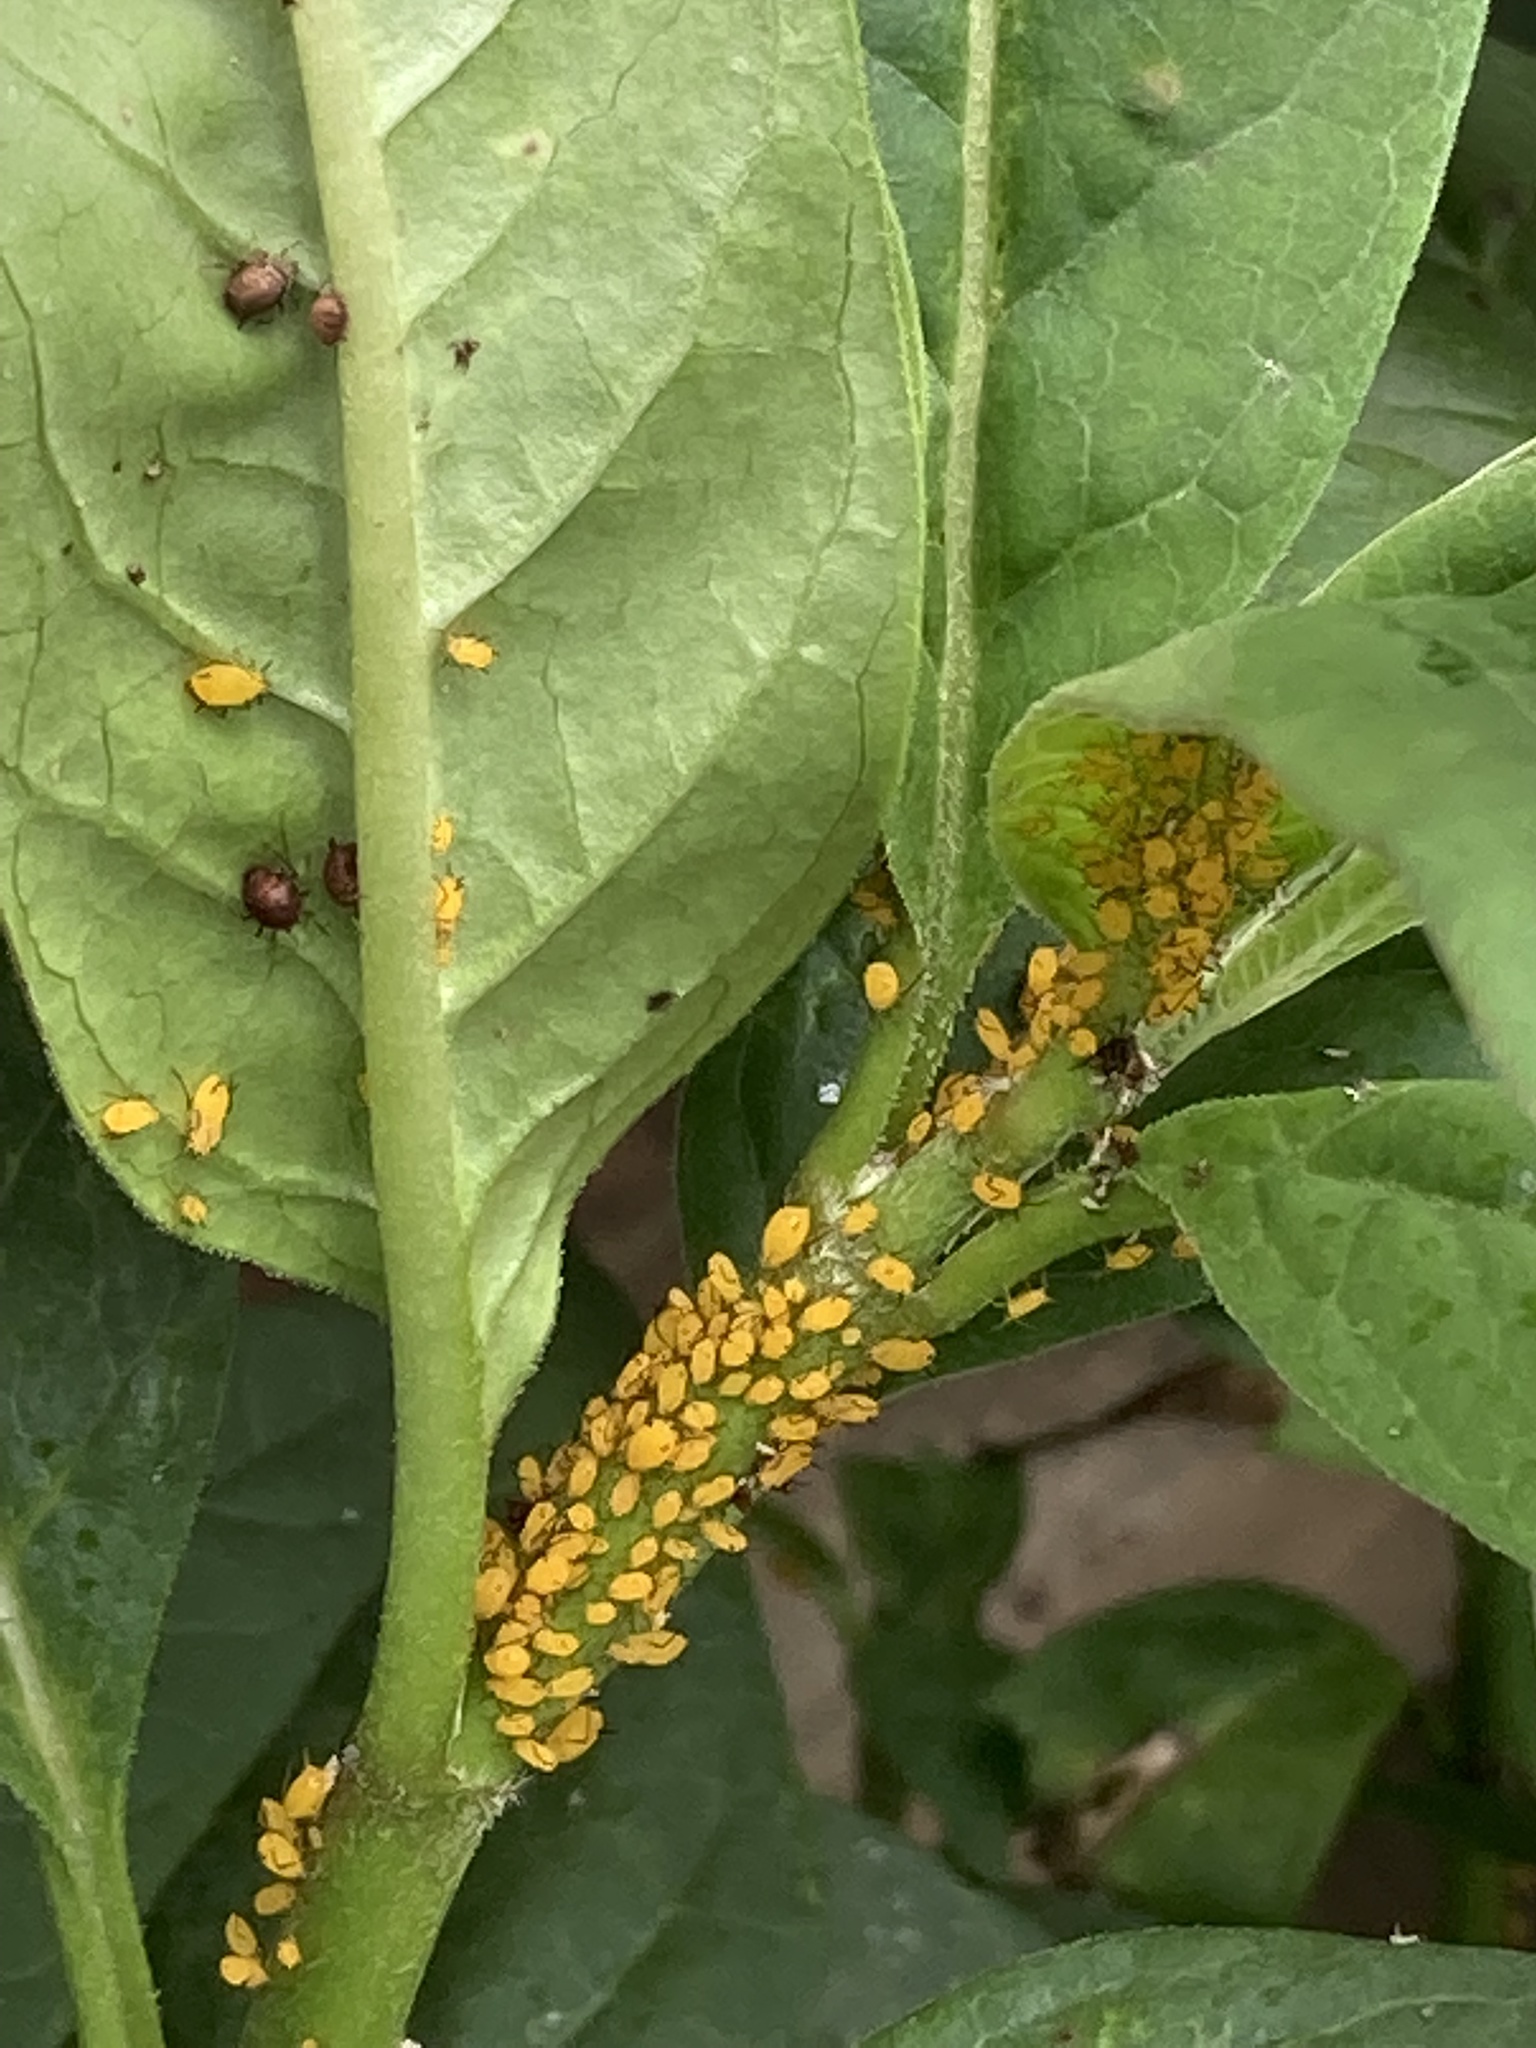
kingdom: Animalia
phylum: Arthropoda
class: Insecta
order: Hemiptera
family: Aphididae
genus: Aphis
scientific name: Aphis nerii
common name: Oleander aphid
